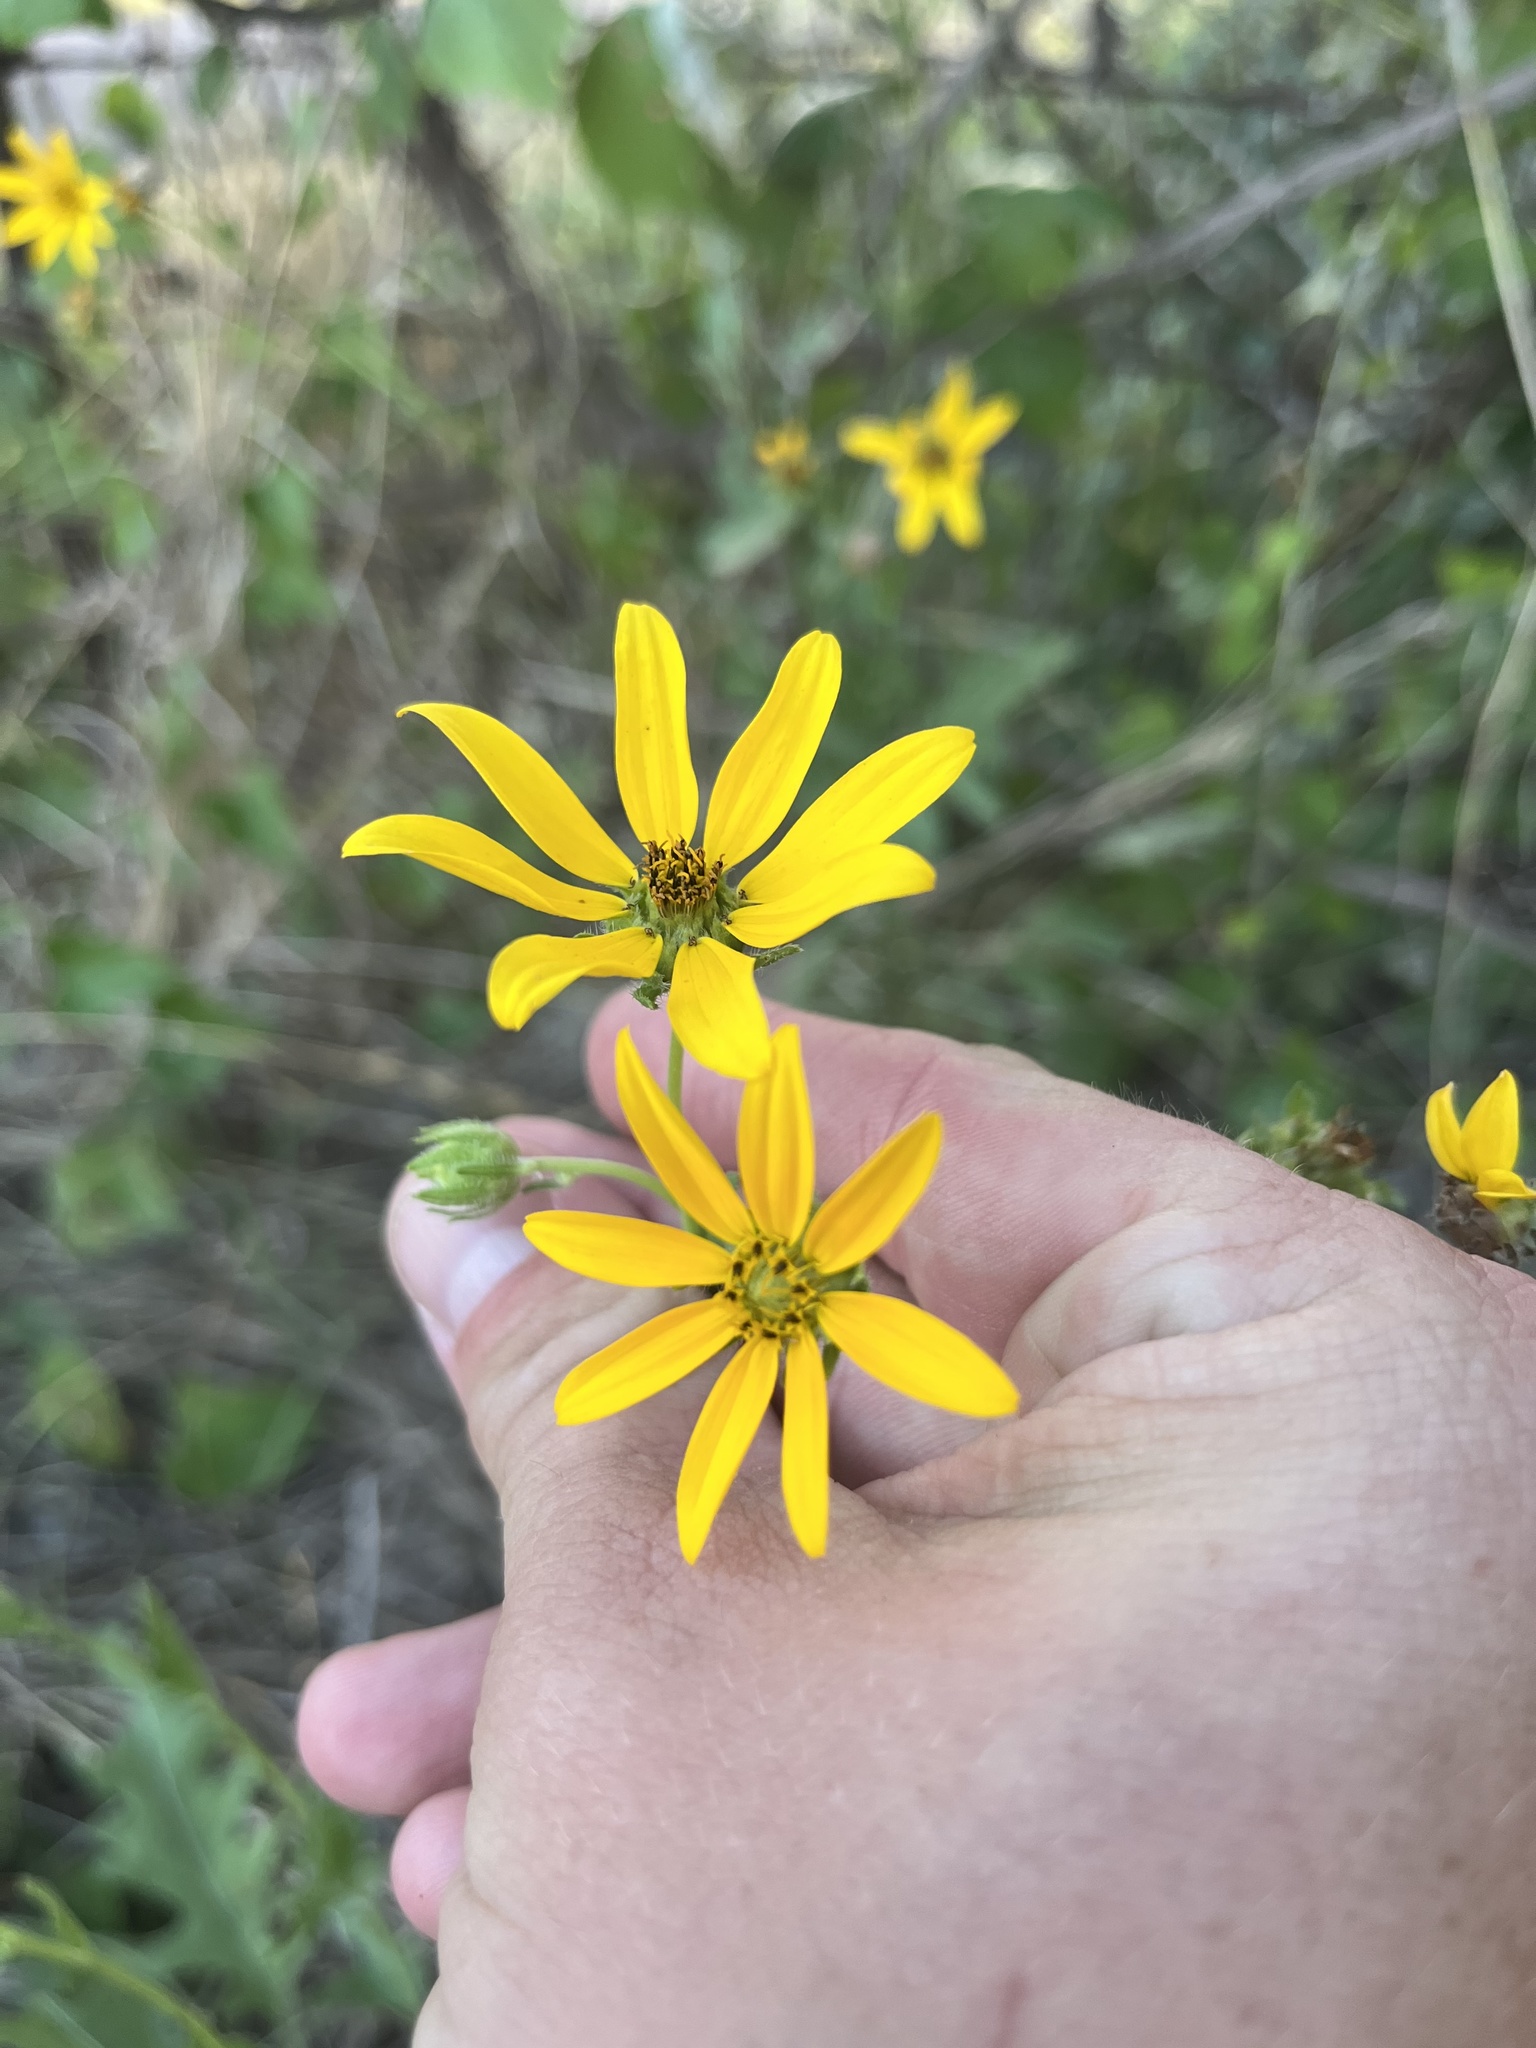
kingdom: Plantae
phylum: Tracheophyta
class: Magnoliopsida
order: Asterales
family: Asteraceae
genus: Engelmannia
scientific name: Engelmannia peristenia
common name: Engelmann's daisy
